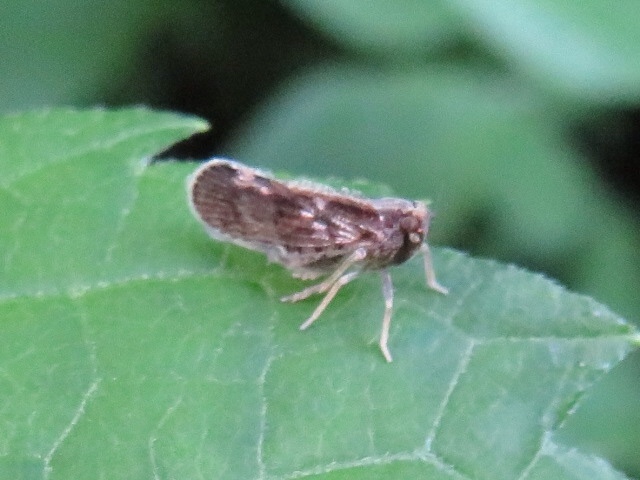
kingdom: Animalia
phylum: Arthropoda
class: Insecta
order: Hemiptera
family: Cixiidae
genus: Pintalia
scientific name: Pintalia vibex
